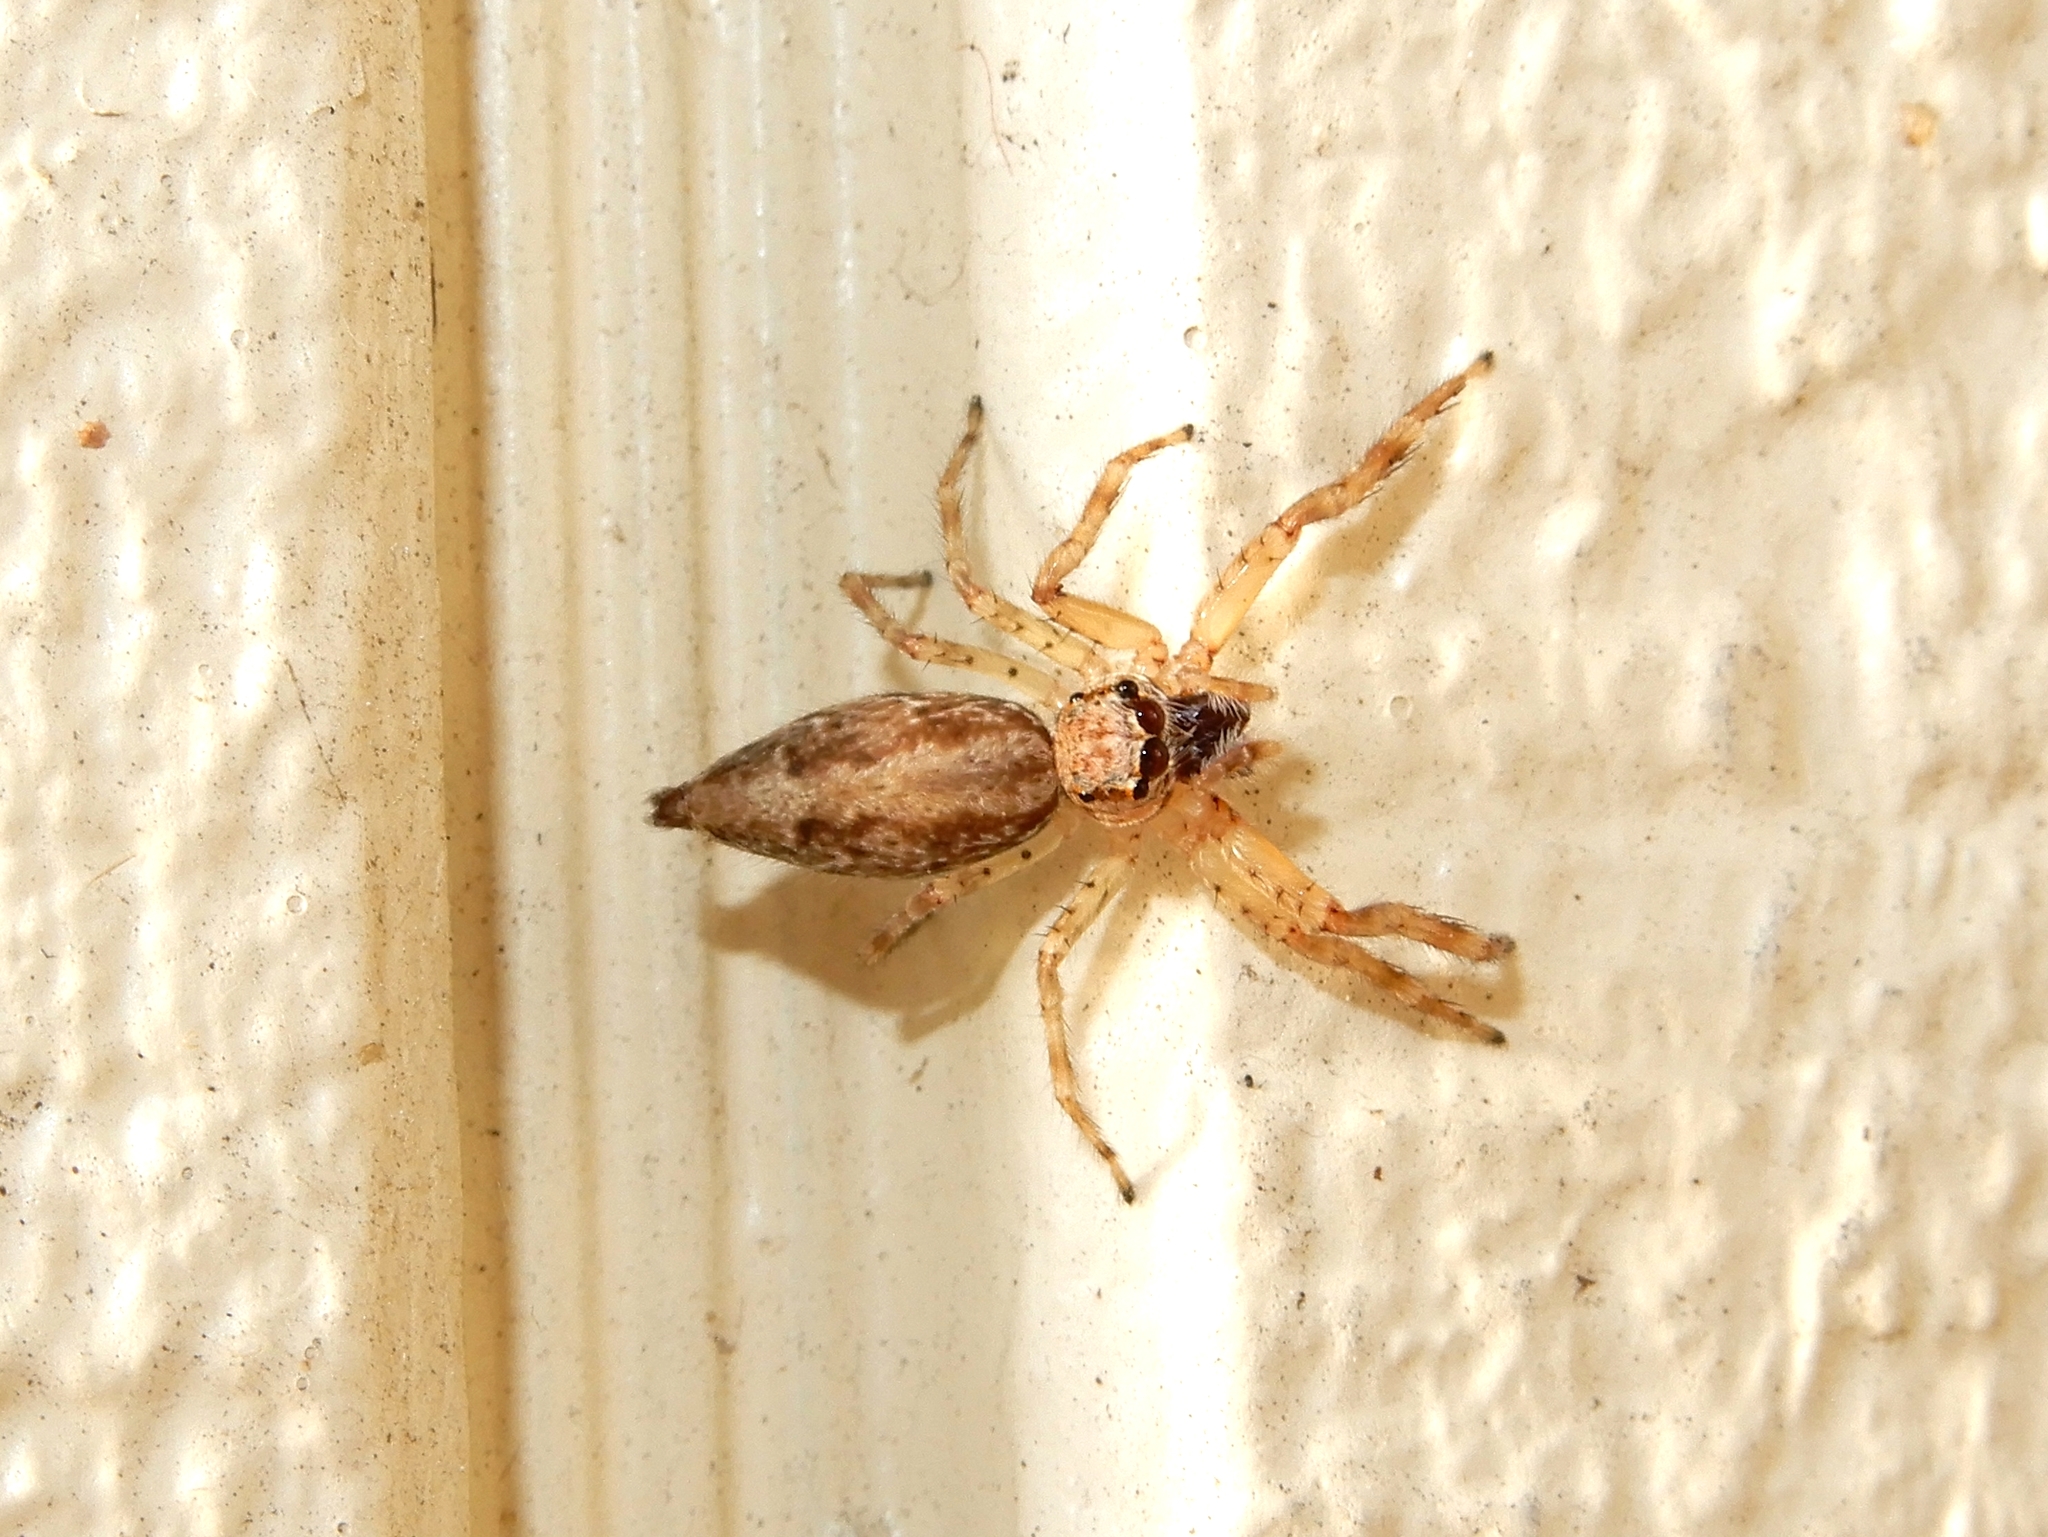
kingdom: Animalia
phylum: Arthropoda
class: Arachnida
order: Araneae
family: Salticidae
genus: Helpis
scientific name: Helpis minitabunda
